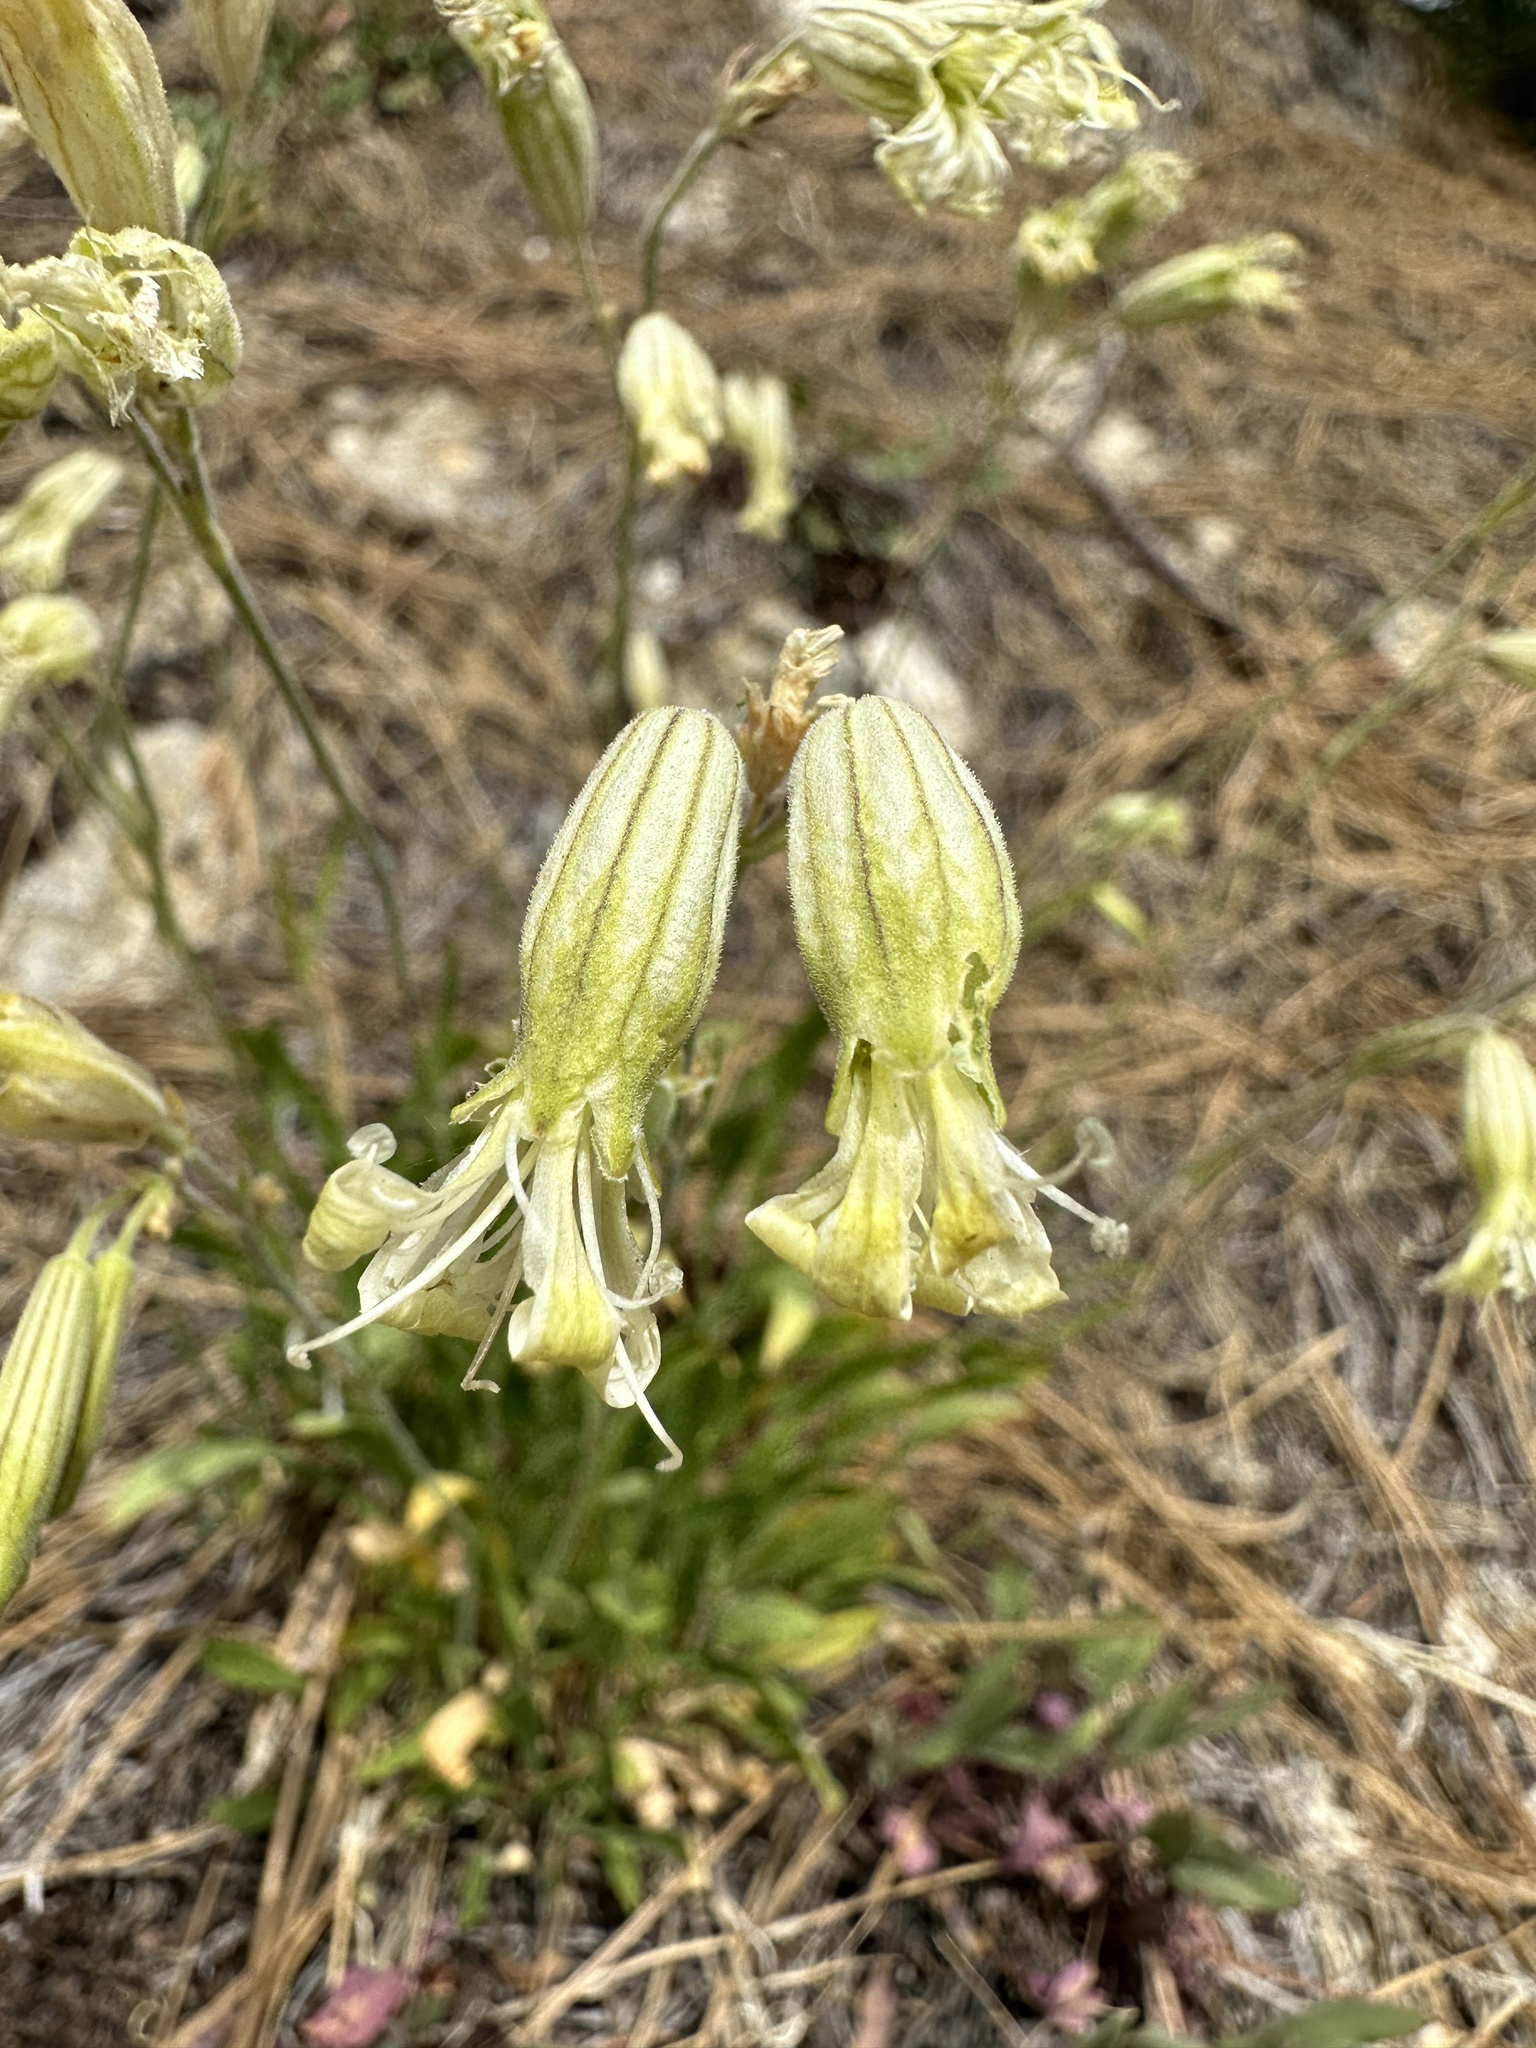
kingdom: Plantae
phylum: Tracheophyta
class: Magnoliopsida
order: Caryophyllales
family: Caryophyllaceae
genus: Silene
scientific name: Silene douglasii
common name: Douglas's catchfly
